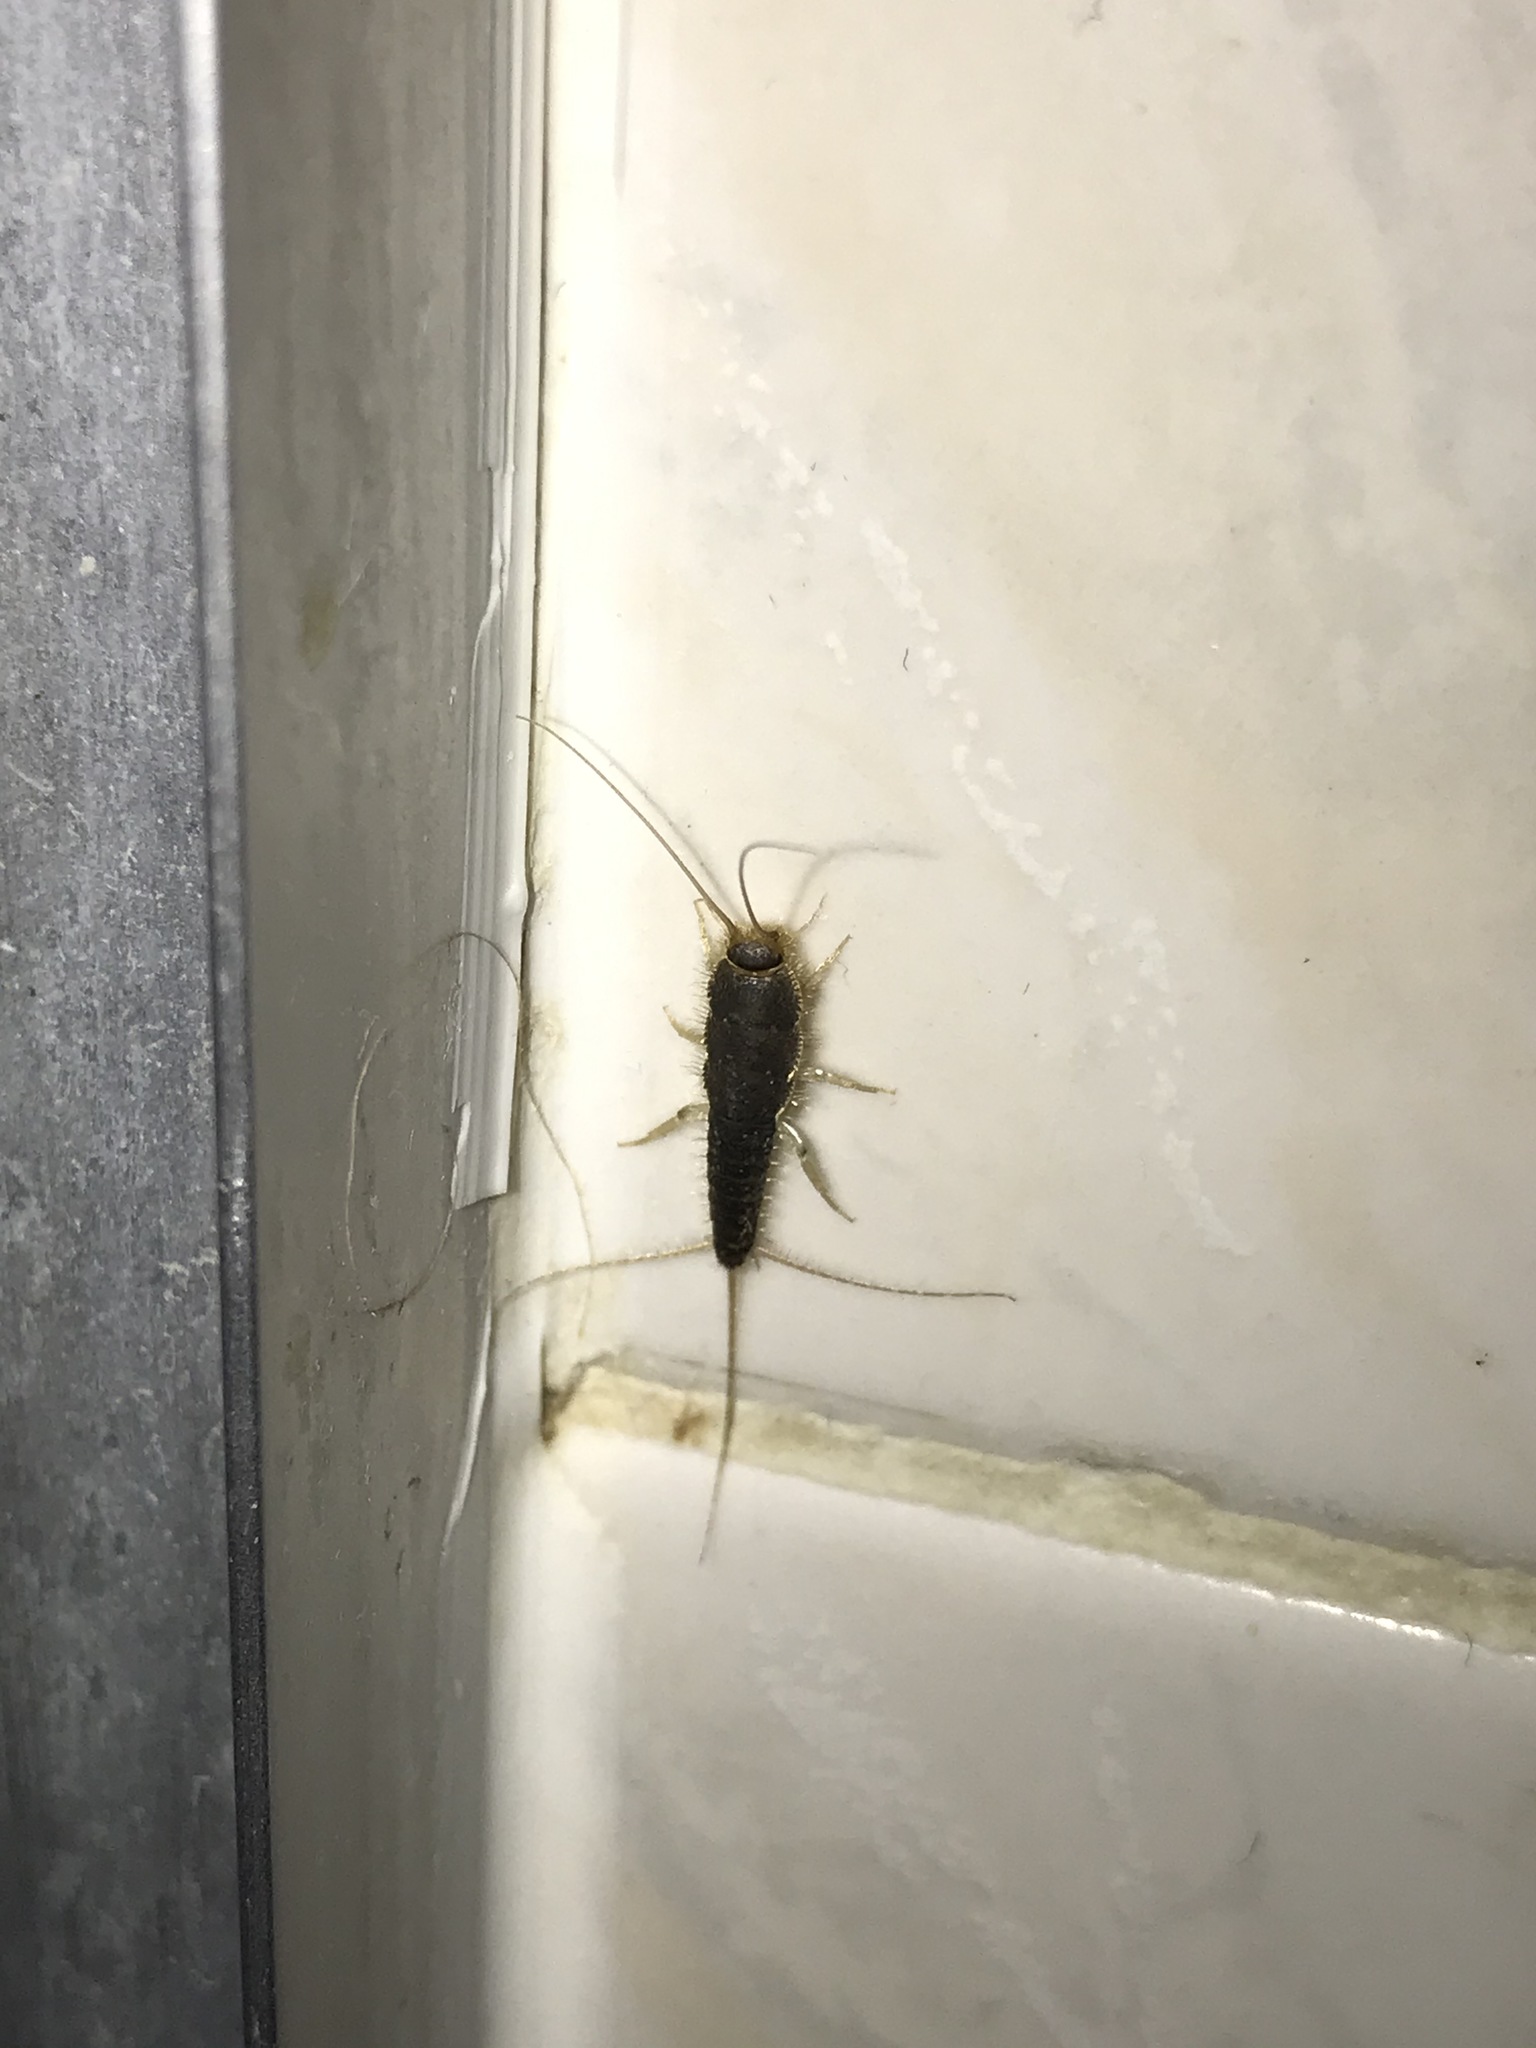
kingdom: Animalia
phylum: Arthropoda
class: Insecta
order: Zygentoma
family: Lepismatidae
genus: Ctenolepisma
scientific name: Ctenolepisma longicaudatum
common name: Silverfish
